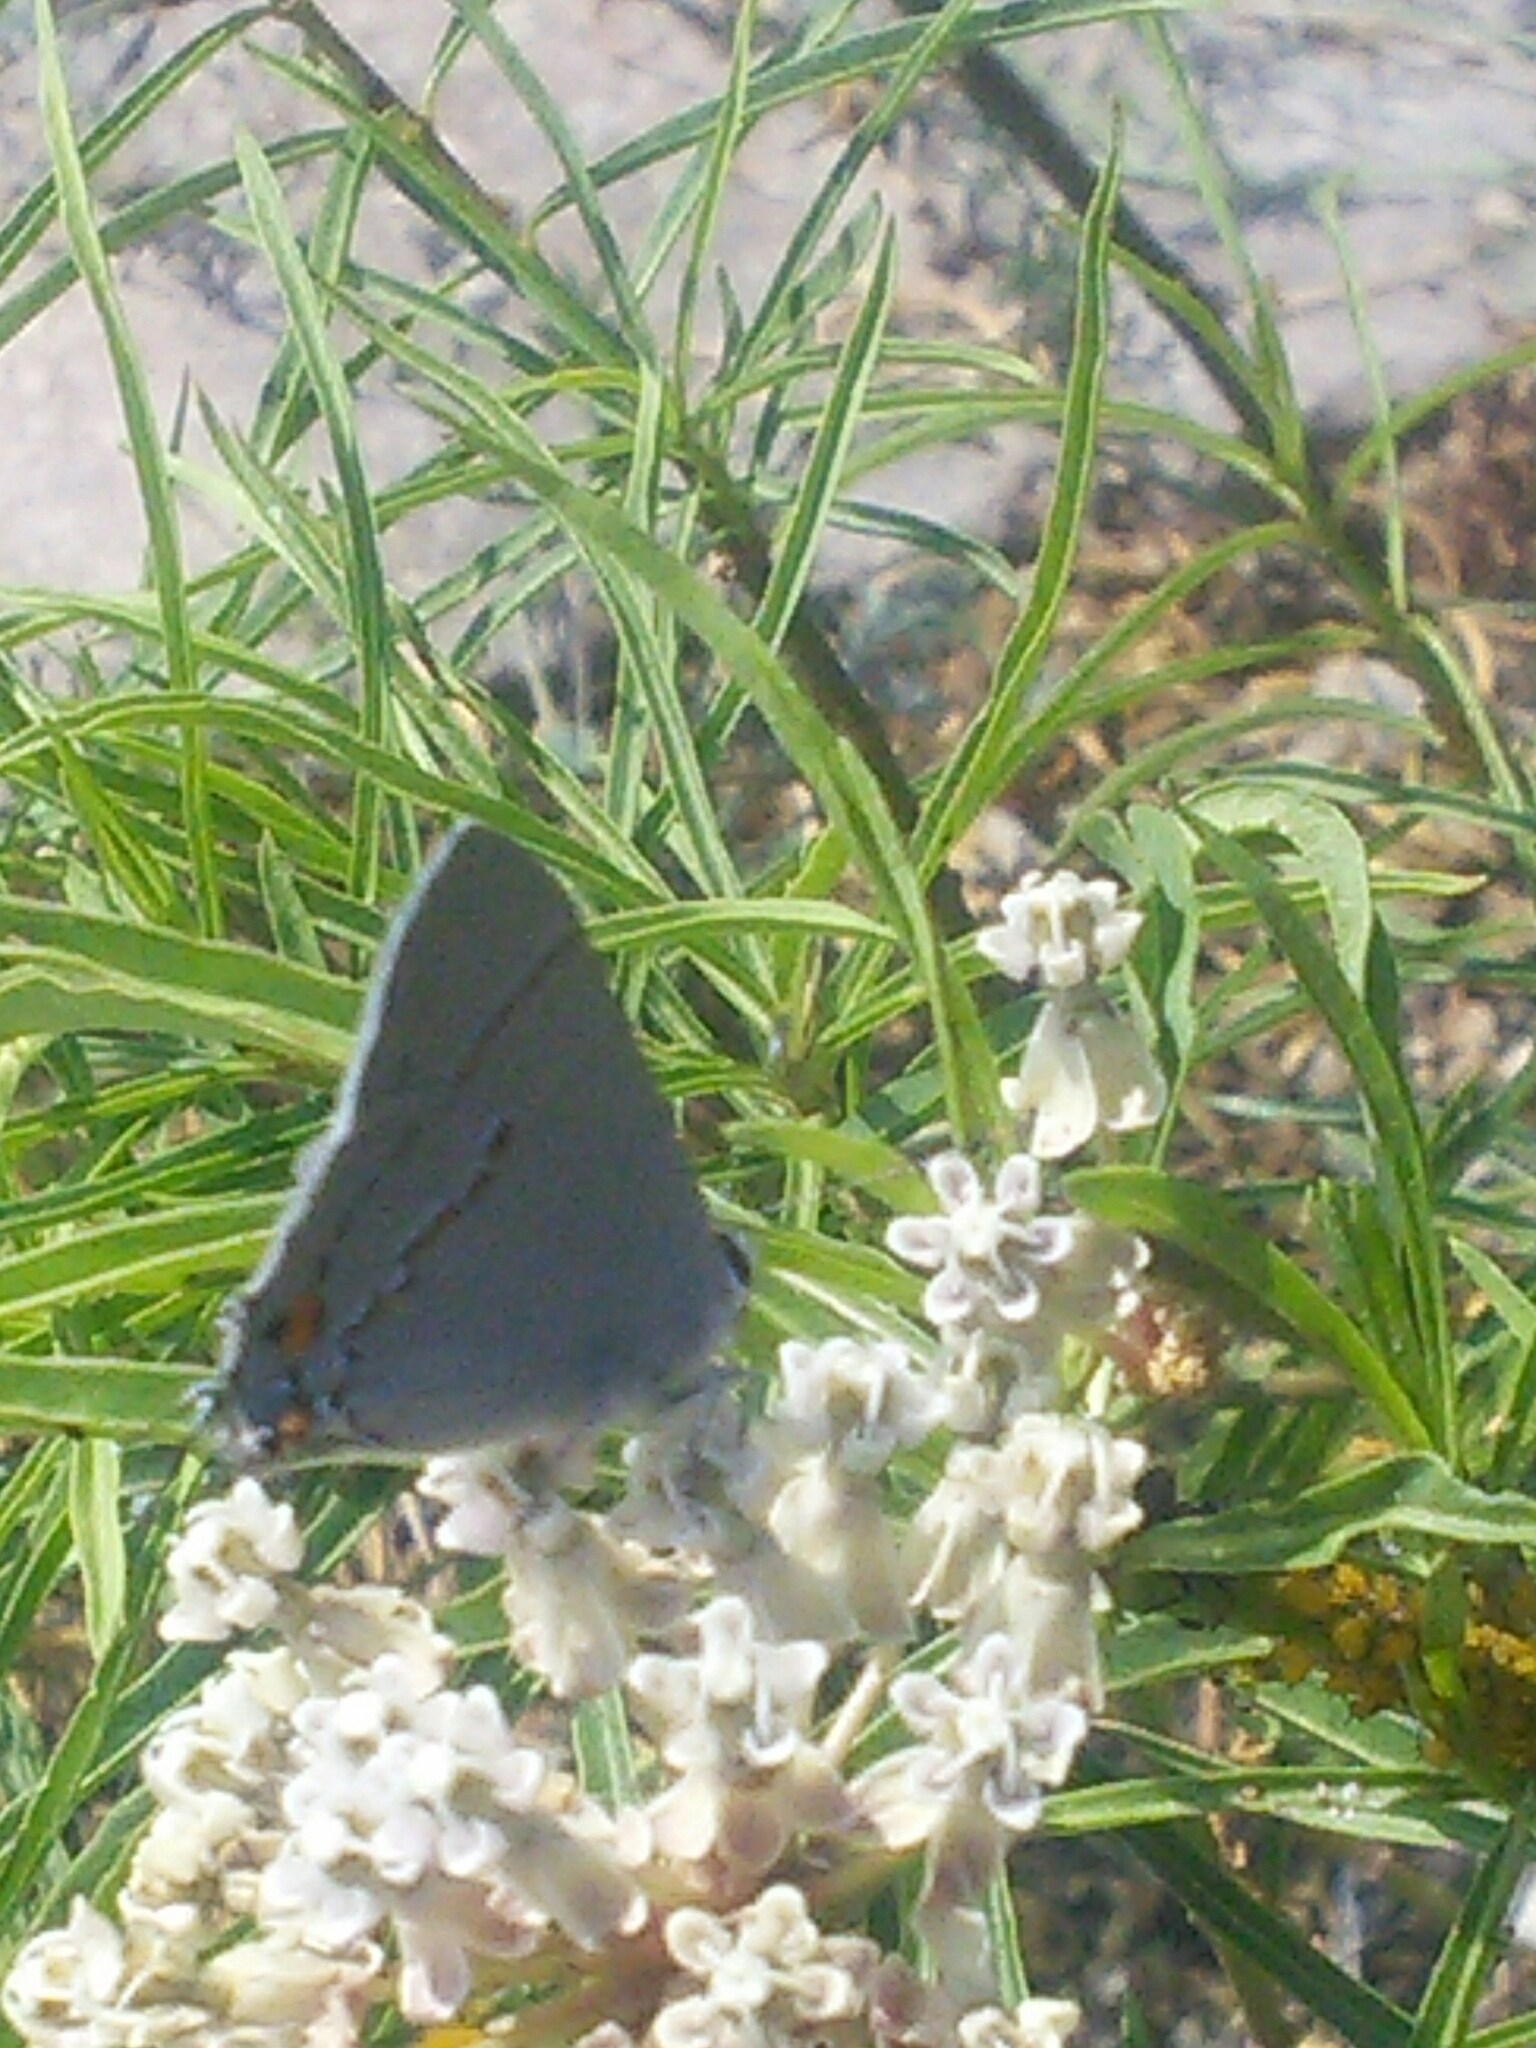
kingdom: Animalia
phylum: Arthropoda
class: Insecta
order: Lepidoptera
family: Lycaenidae
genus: Strymon
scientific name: Strymon melinus
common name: Gray hairstreak
